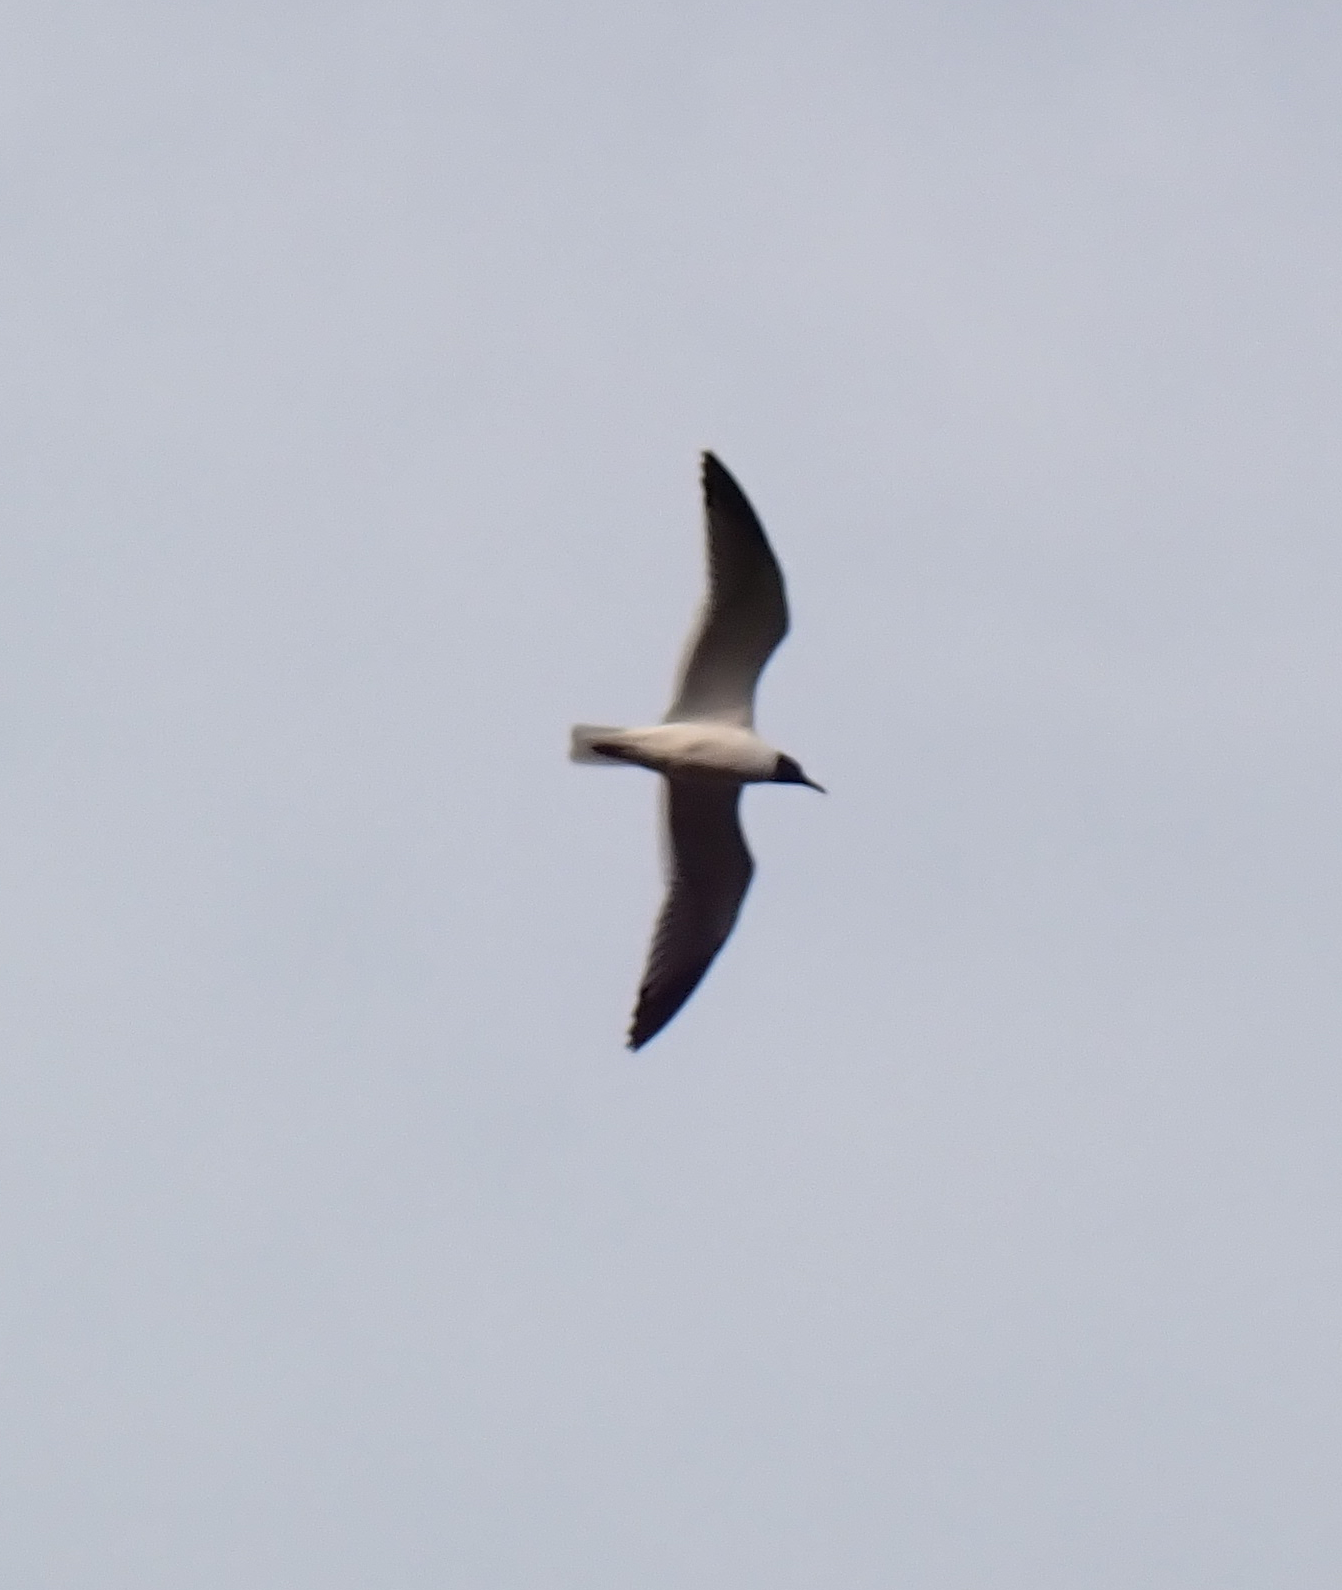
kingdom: Animalia
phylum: Chordata
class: Aves
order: Charadriiformes
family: Laridae
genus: Leucophaeus
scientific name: Leucophaeus atricilla
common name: Laughing gull
